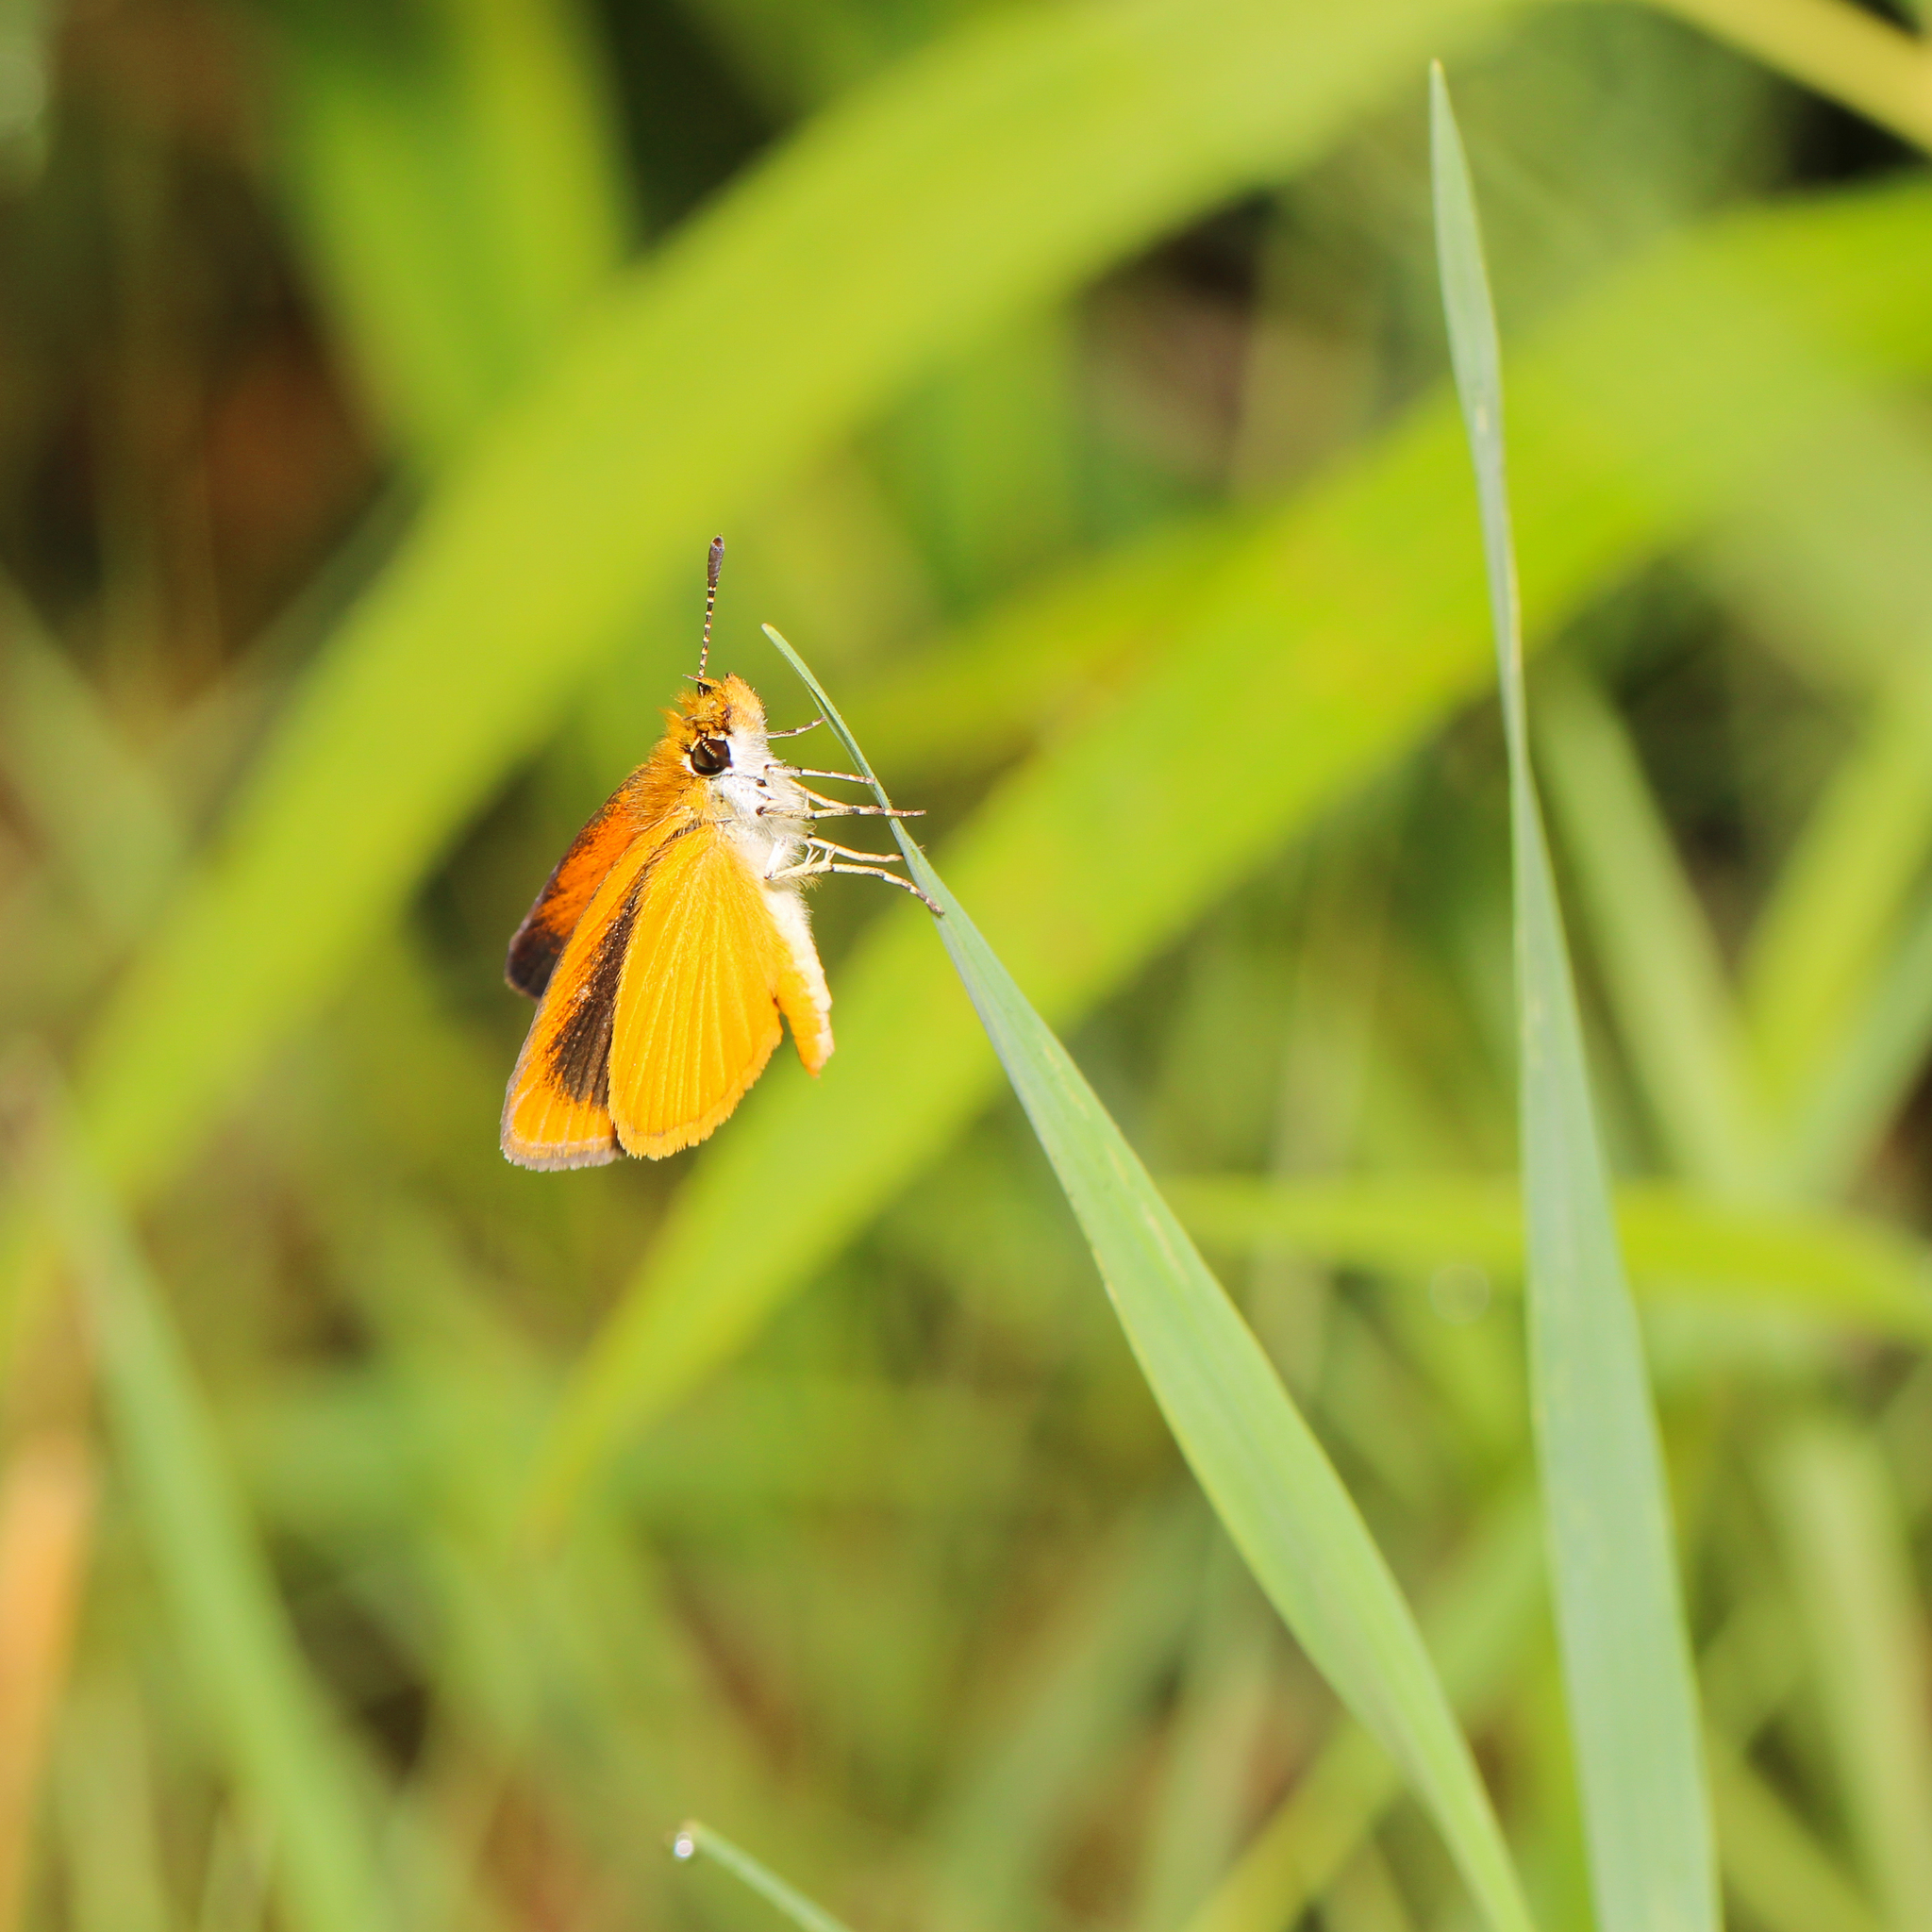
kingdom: Animalia
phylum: Arthropoda
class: Insecta
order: Lepidoptera
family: Hesperiidae
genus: Ancyloxypha
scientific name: Ancyloxypha numitor
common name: Least skipper
